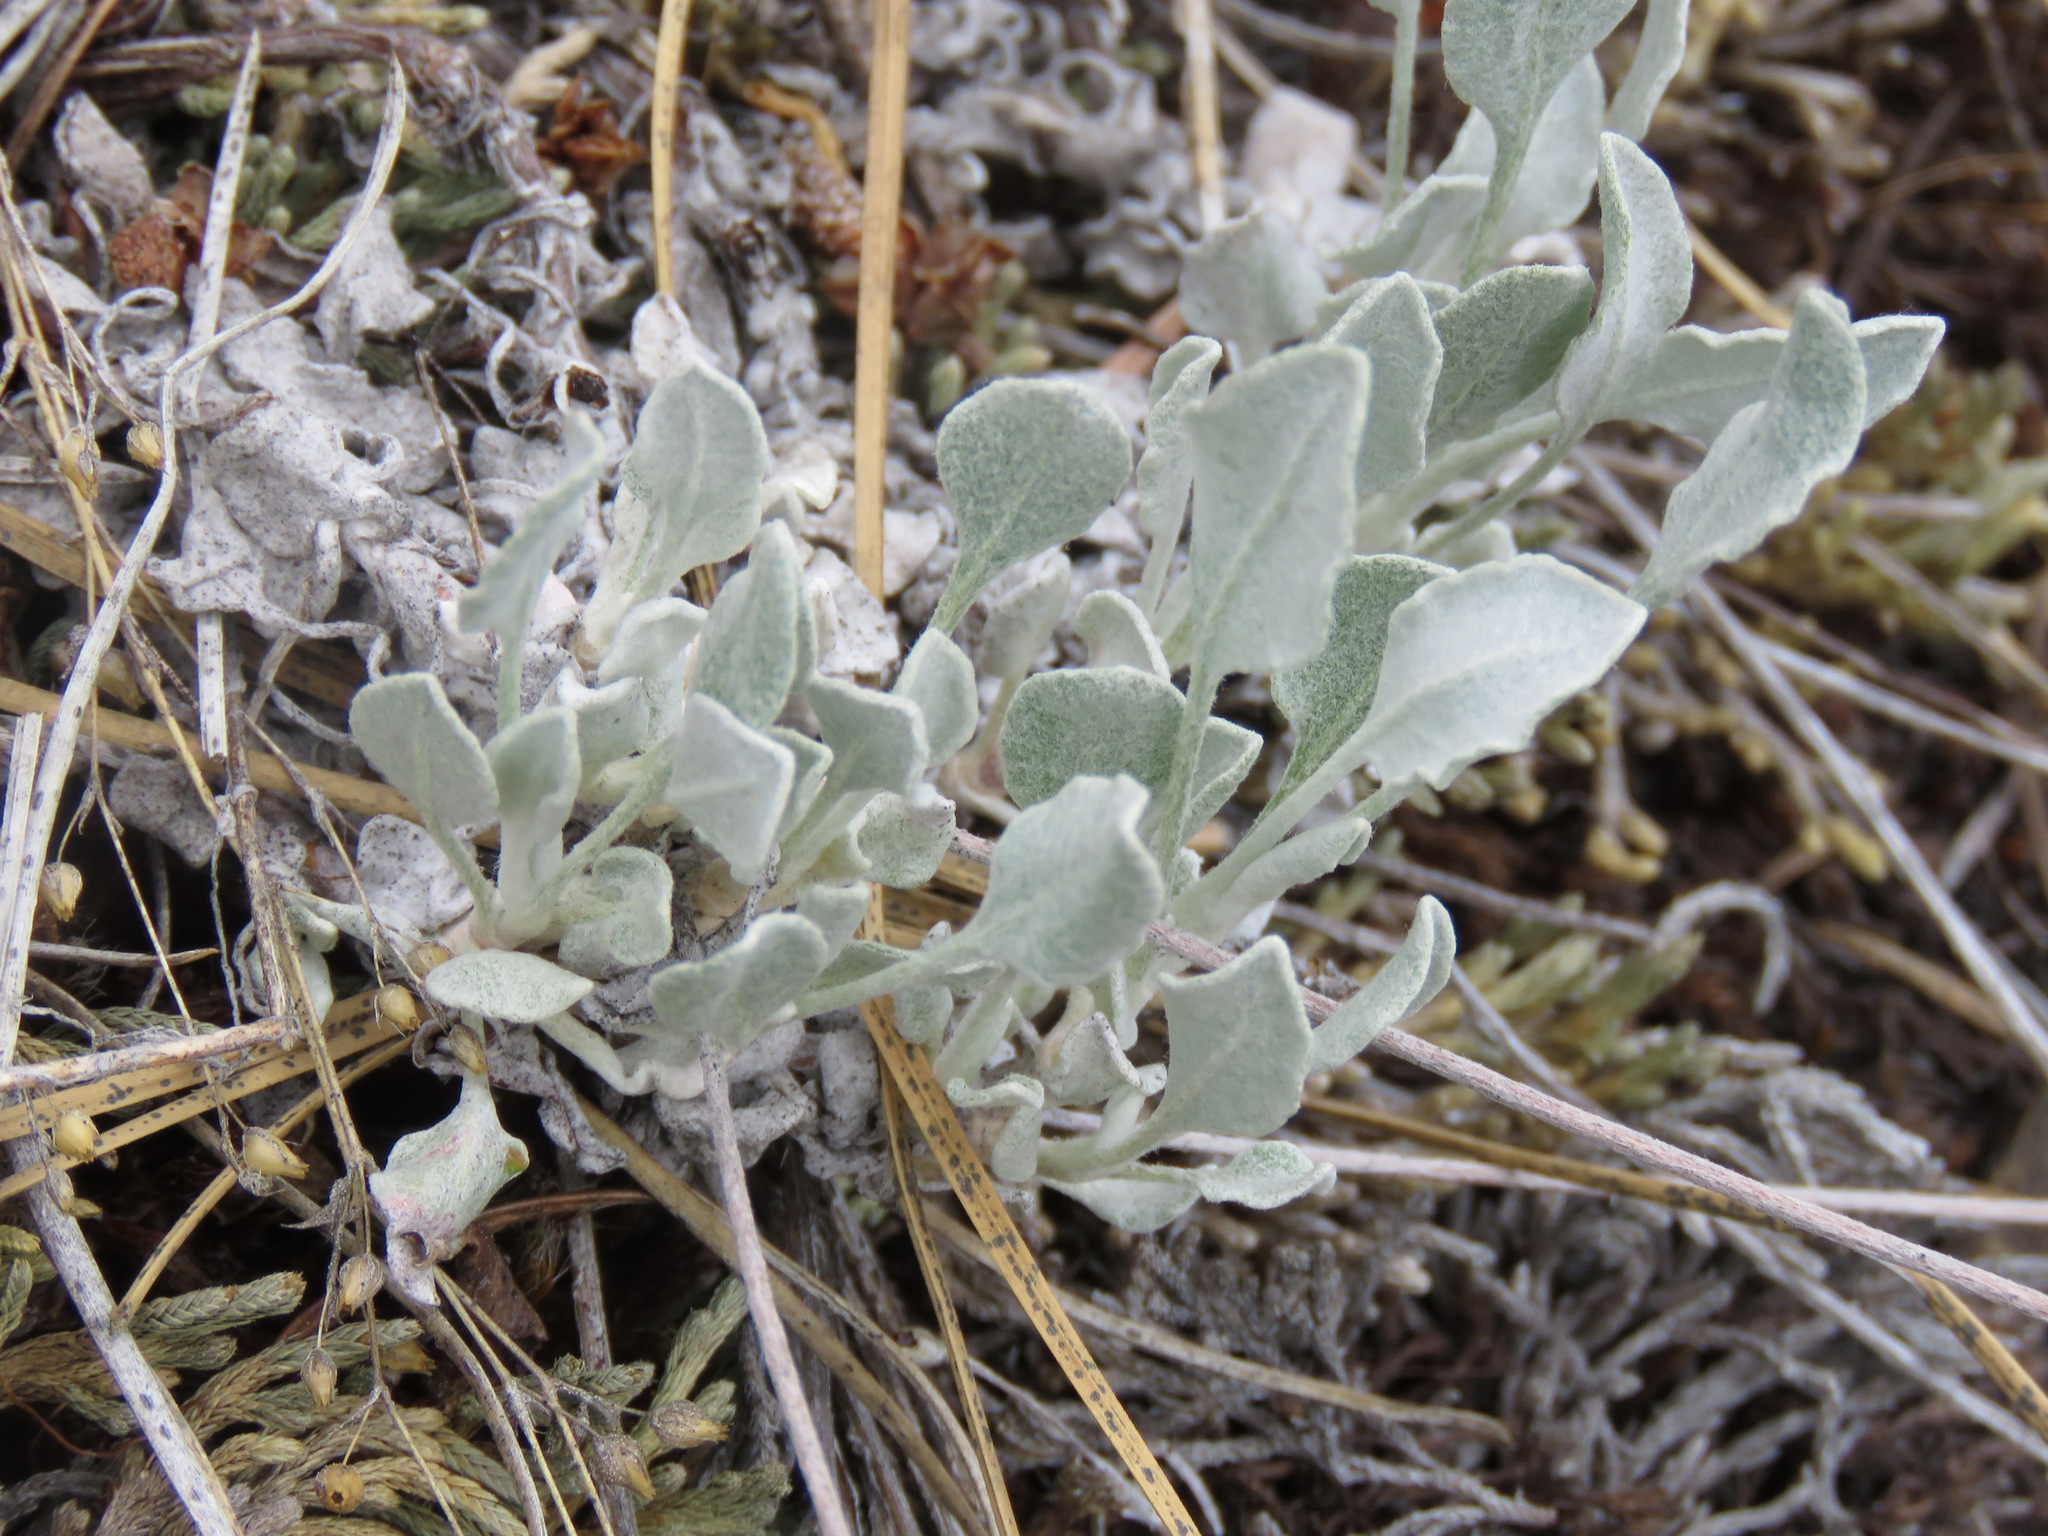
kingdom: Plantae
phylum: Tracheophyta
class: Magnoliopsida
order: Caryophyllales
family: Polygonaceae
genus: Eriogonum
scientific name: Eriogonum niveum
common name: Snow wild buckwheat
